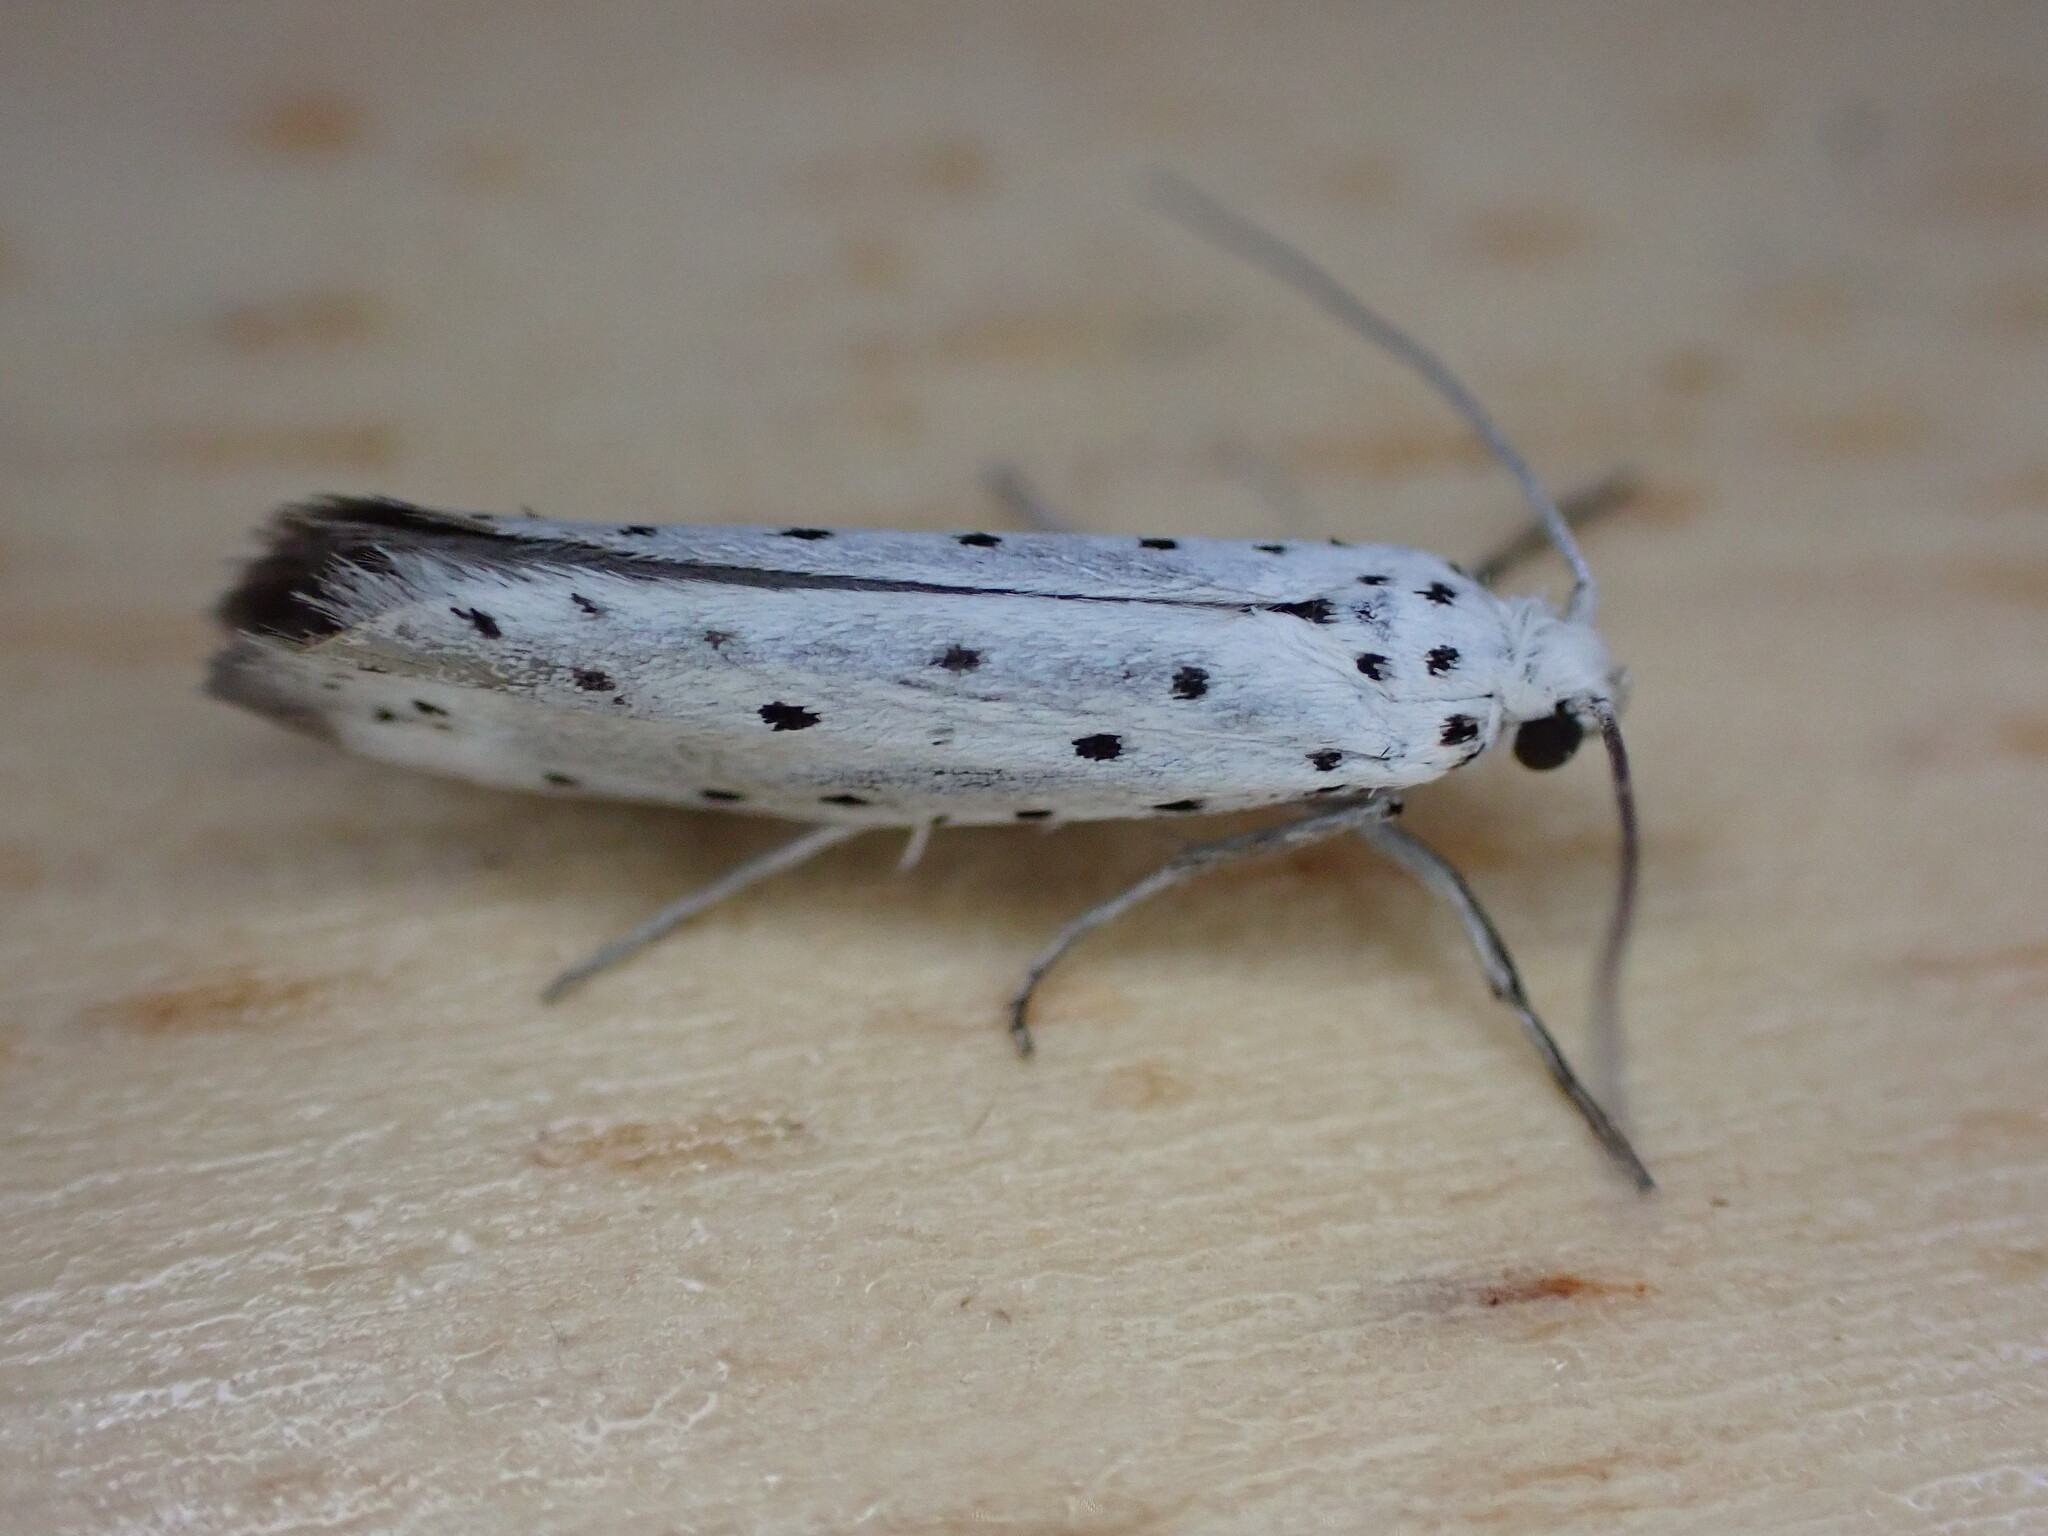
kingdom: Animalia
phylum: Arthropoda
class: Insecta
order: Lepidoptera
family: Yponomeutidae
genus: Yponomeuta
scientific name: Yponomeuta
